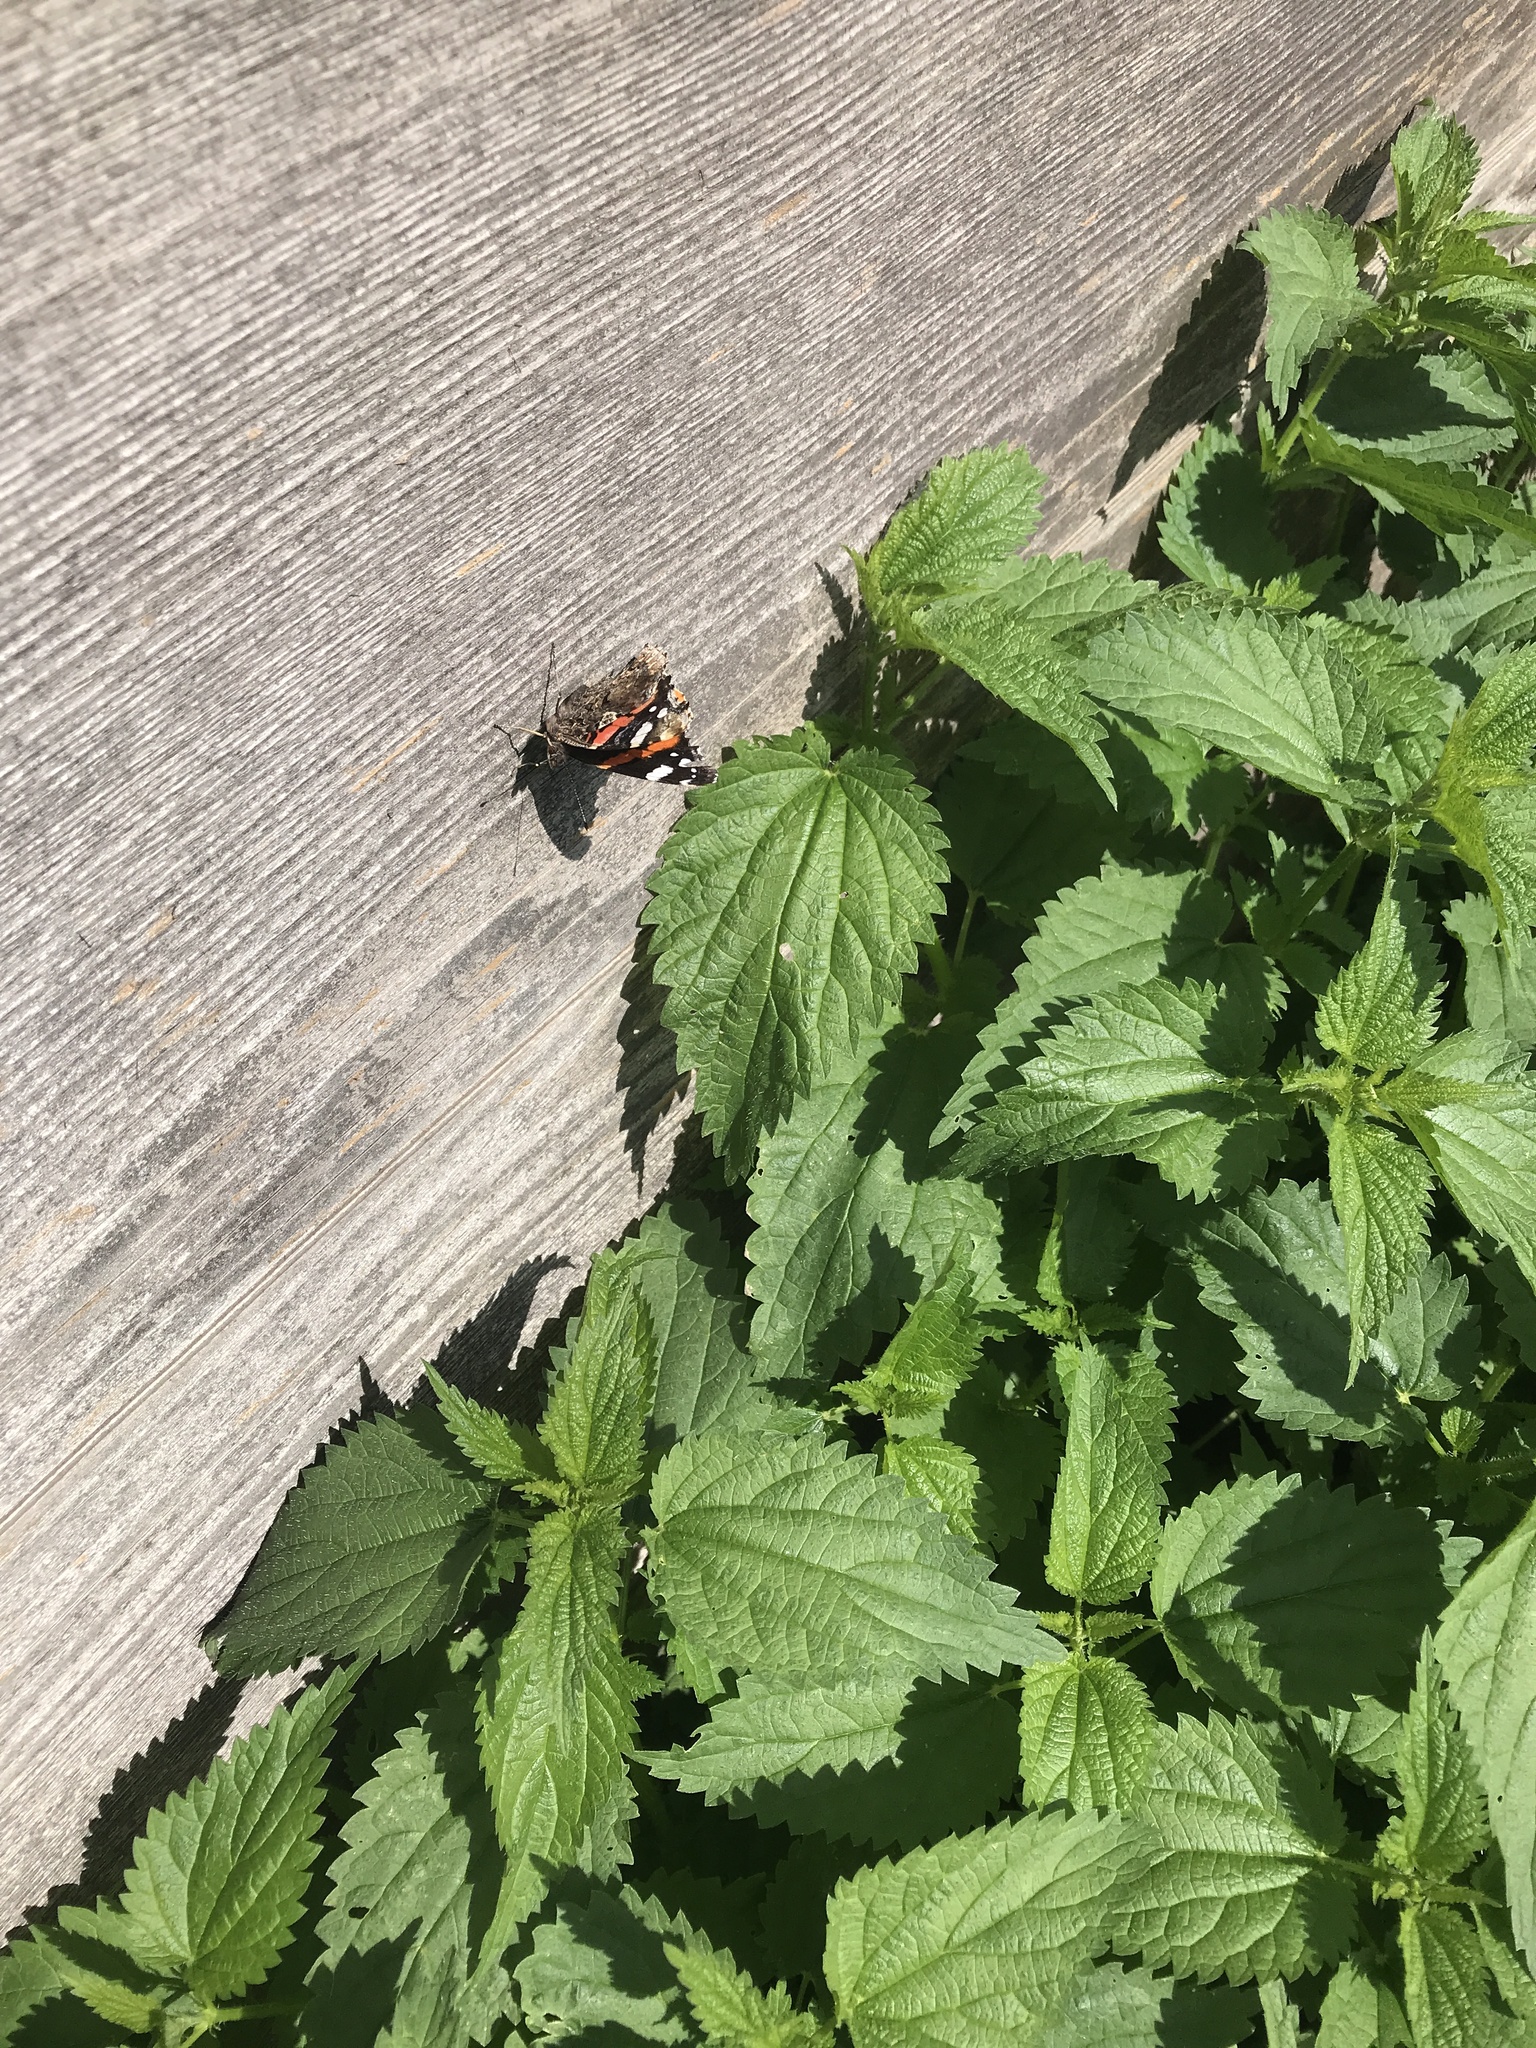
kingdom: Animalia
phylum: Arthropoda
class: Insecta
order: Lepidoptera
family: Nymphalidae
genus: Vanessa
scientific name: Vanessa atalanta
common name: Red admiral
